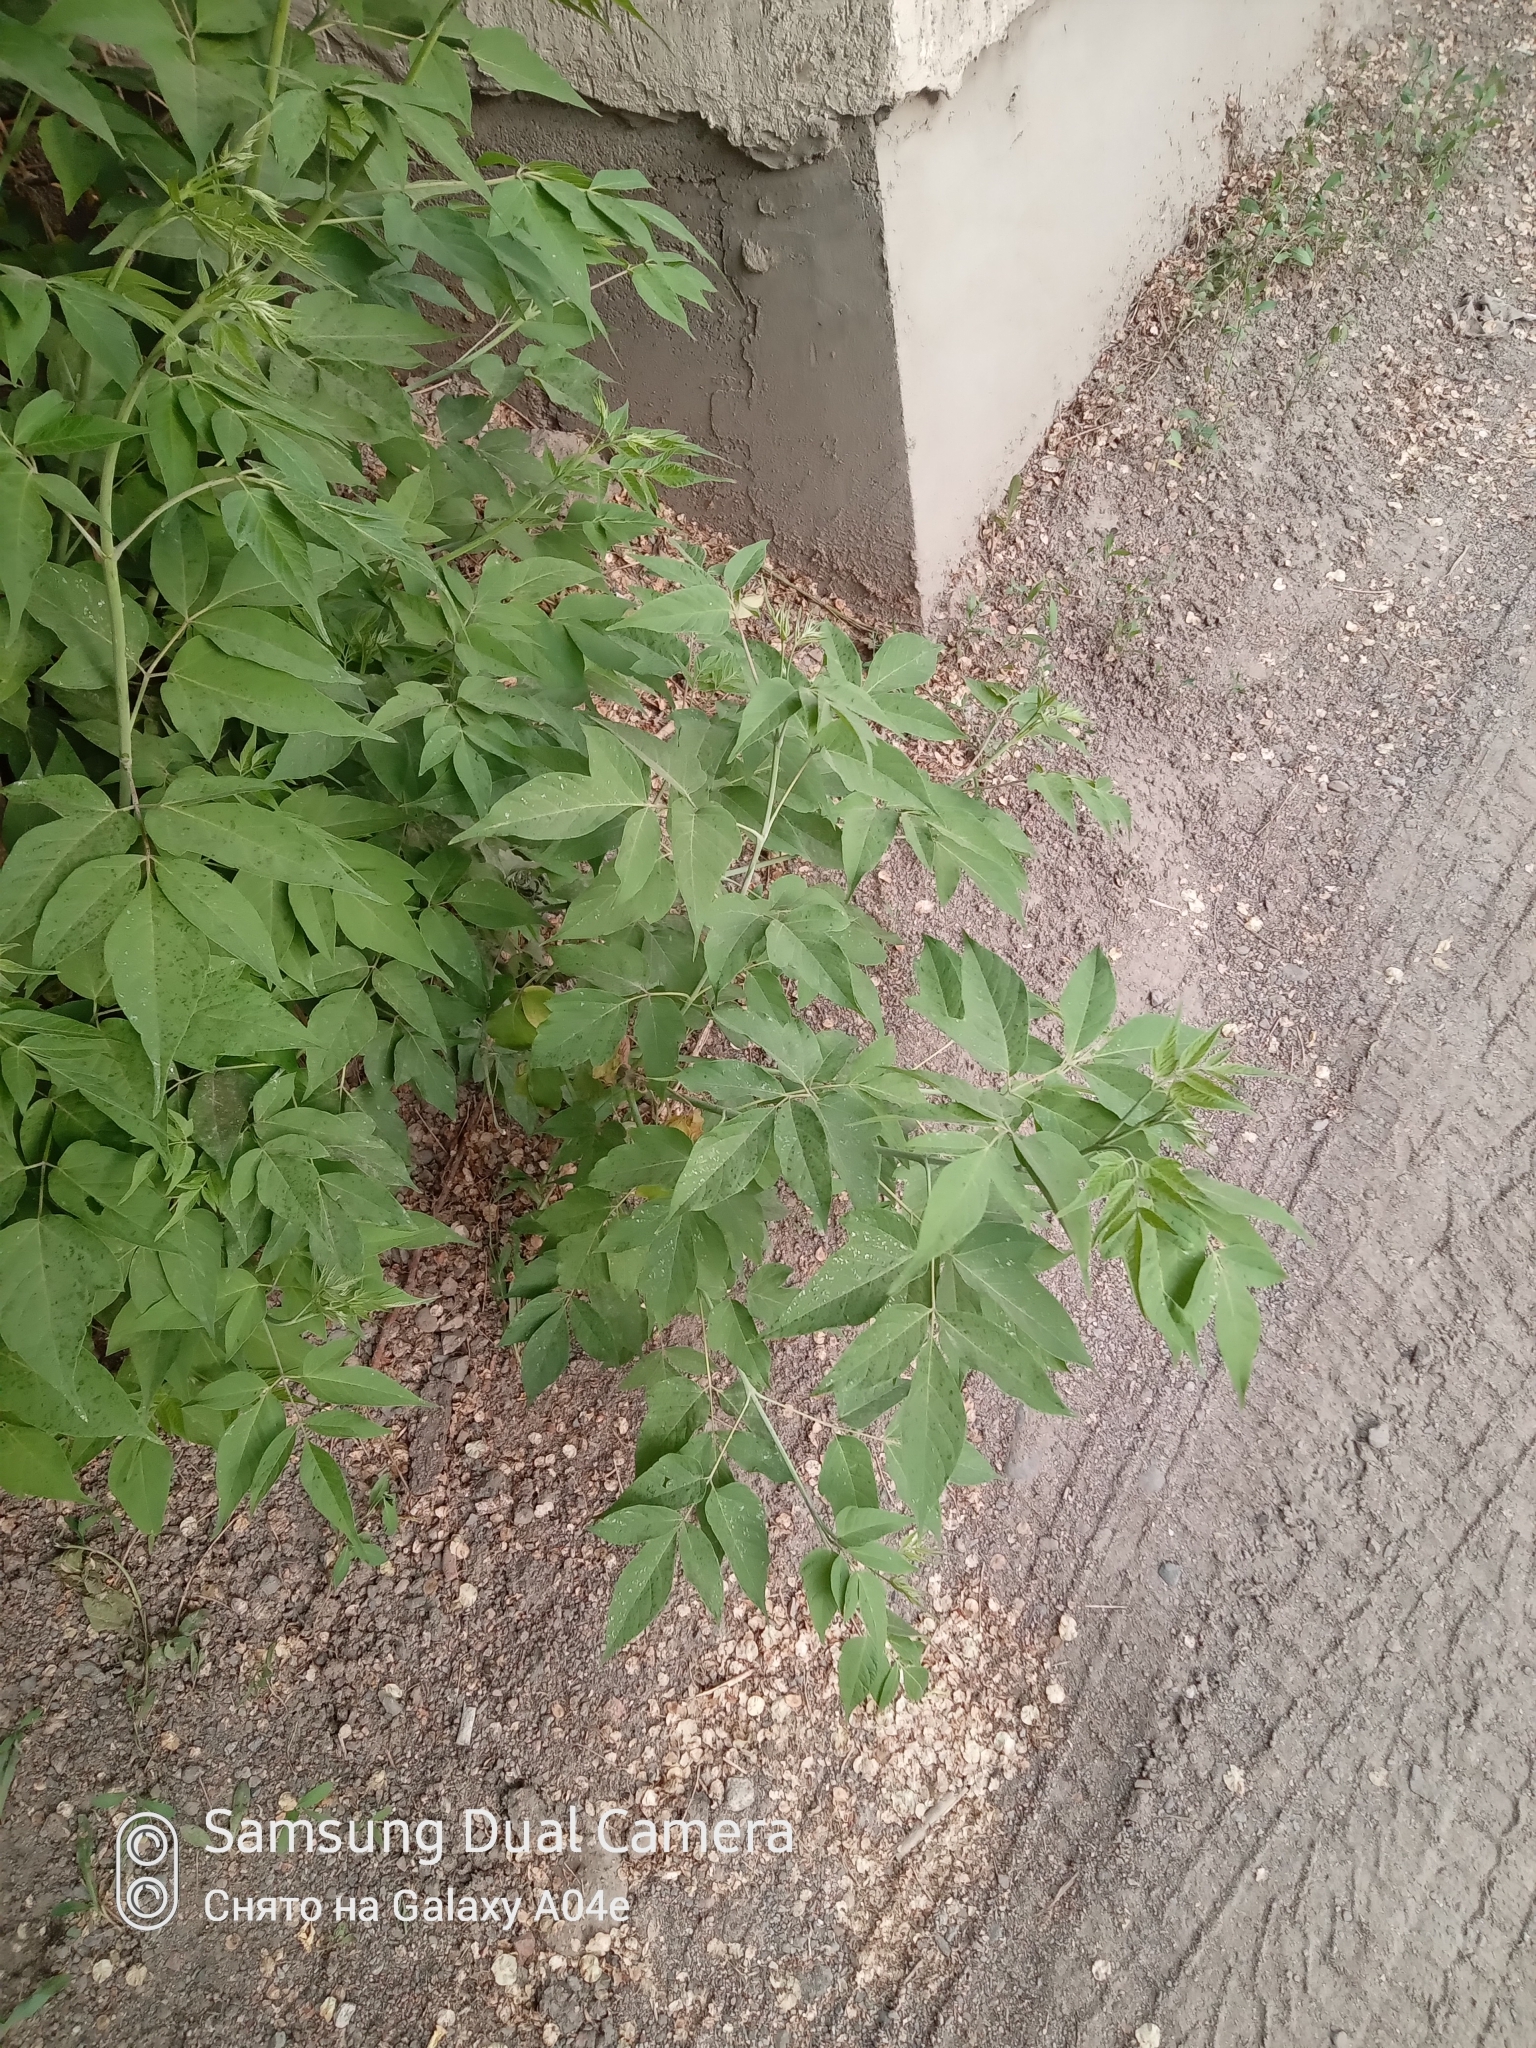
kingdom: Plantae
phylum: Tracheophyta
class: Magnoliopsida
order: Sapindales
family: Sapindaceae
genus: Acer
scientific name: Acer negundo
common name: Ashleaf maple
